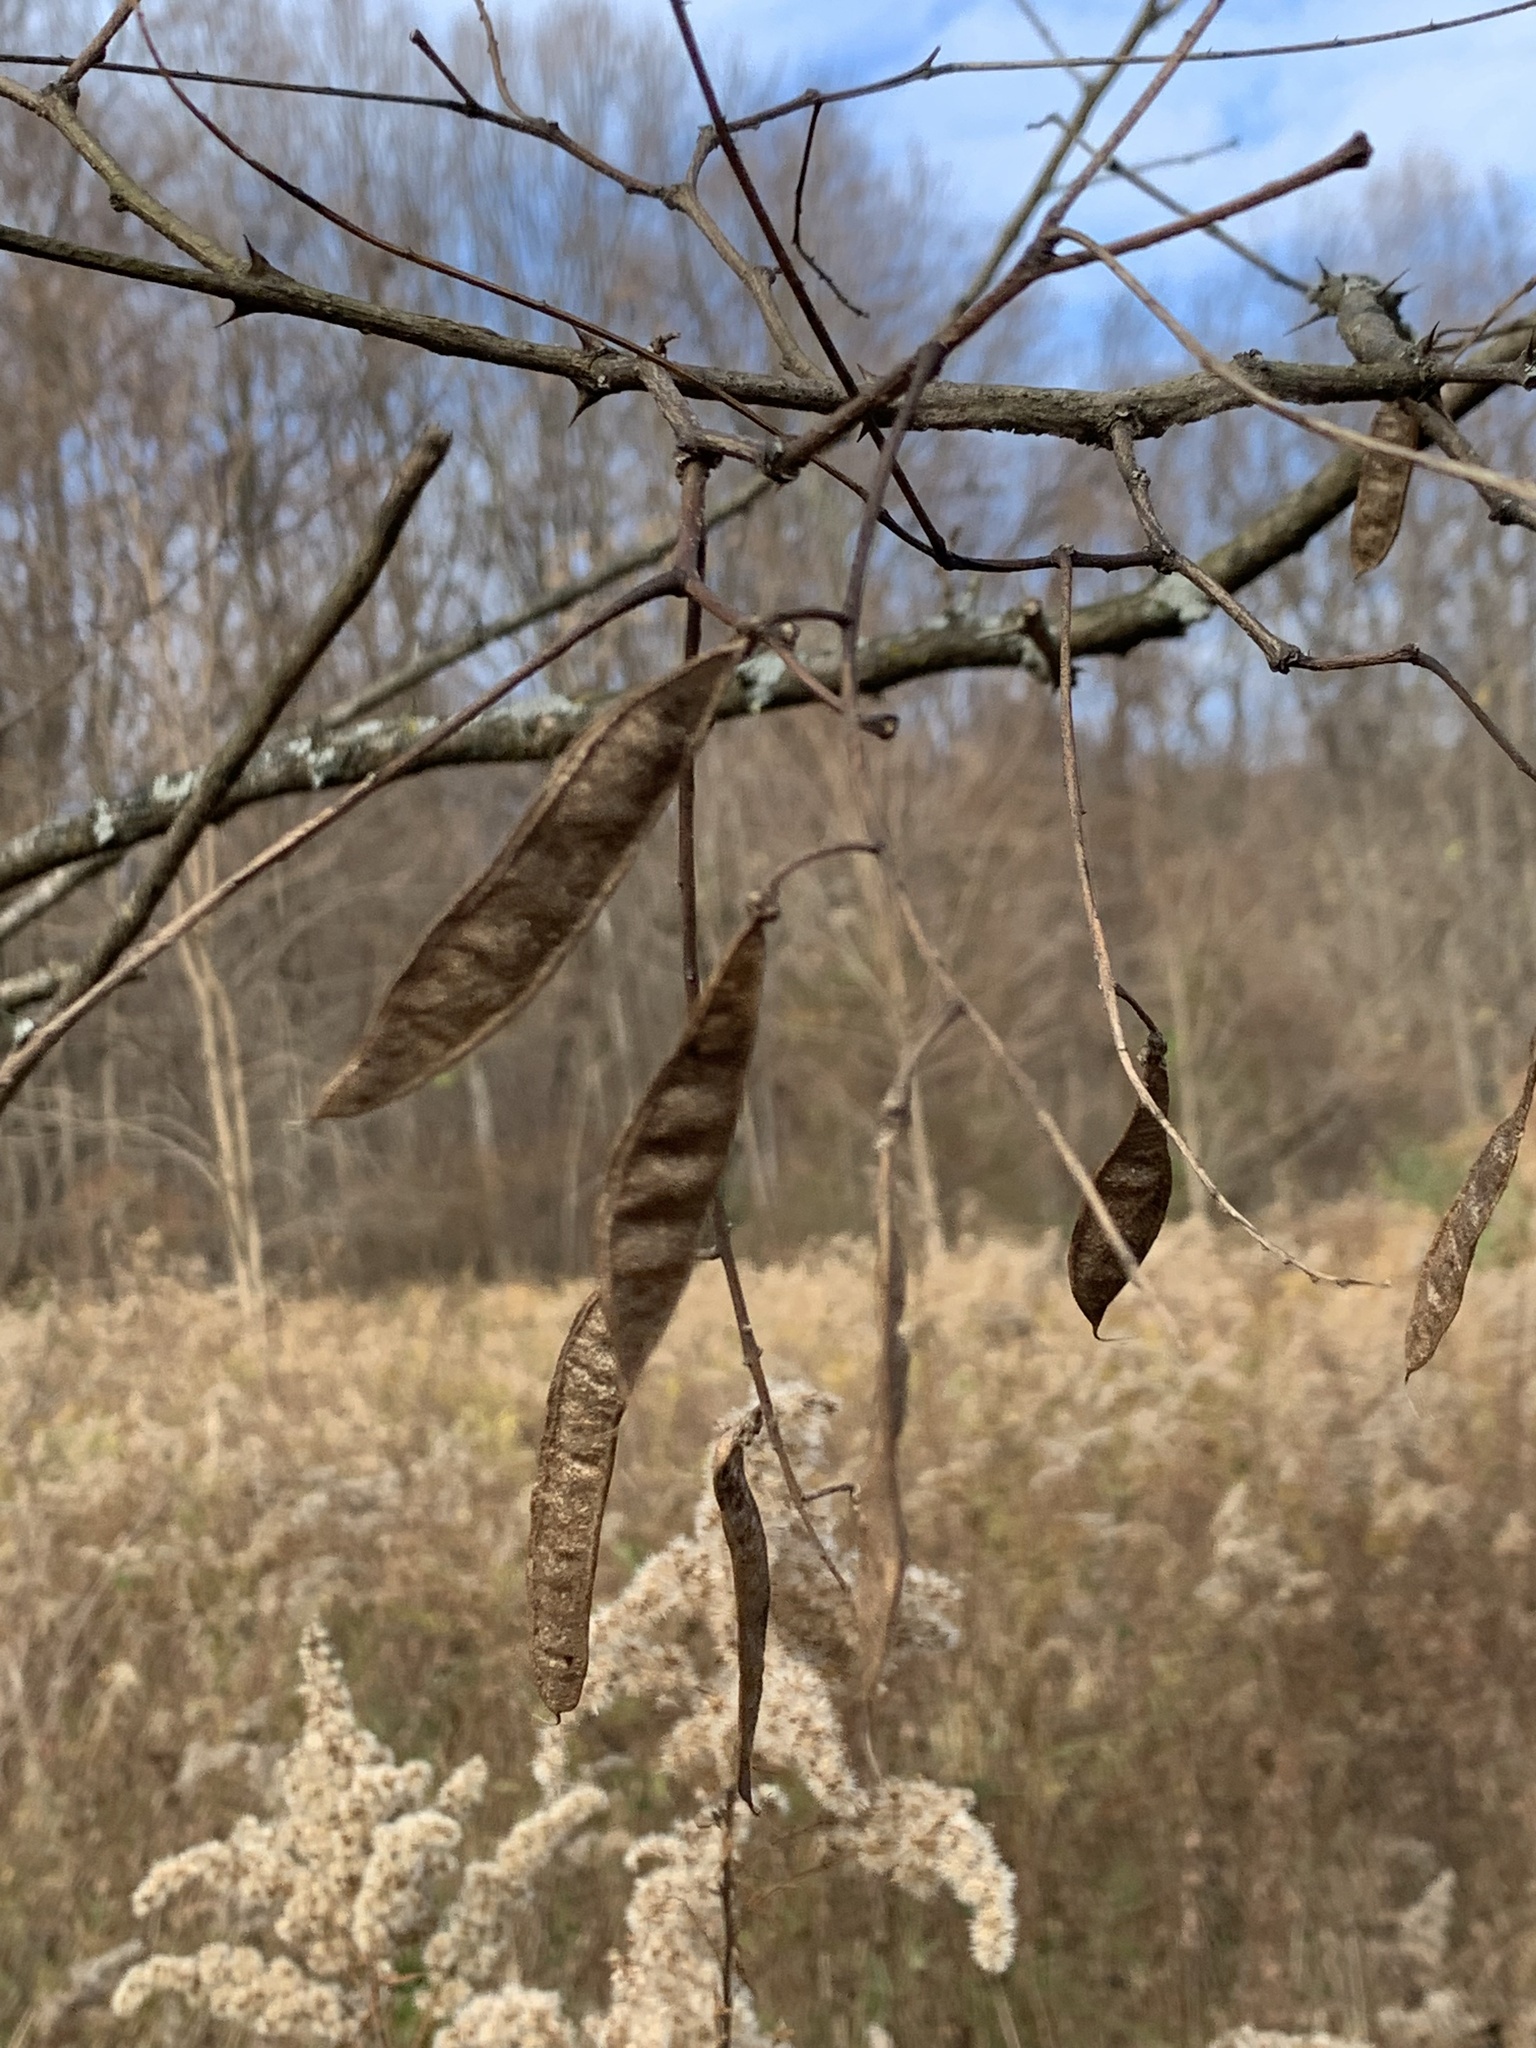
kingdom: Plantae
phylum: Tracheophyta
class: Magnoliopsida
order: Fabales
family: Fabaceae
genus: Robinia
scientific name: Robinia pseudoacacia
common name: Black locust
